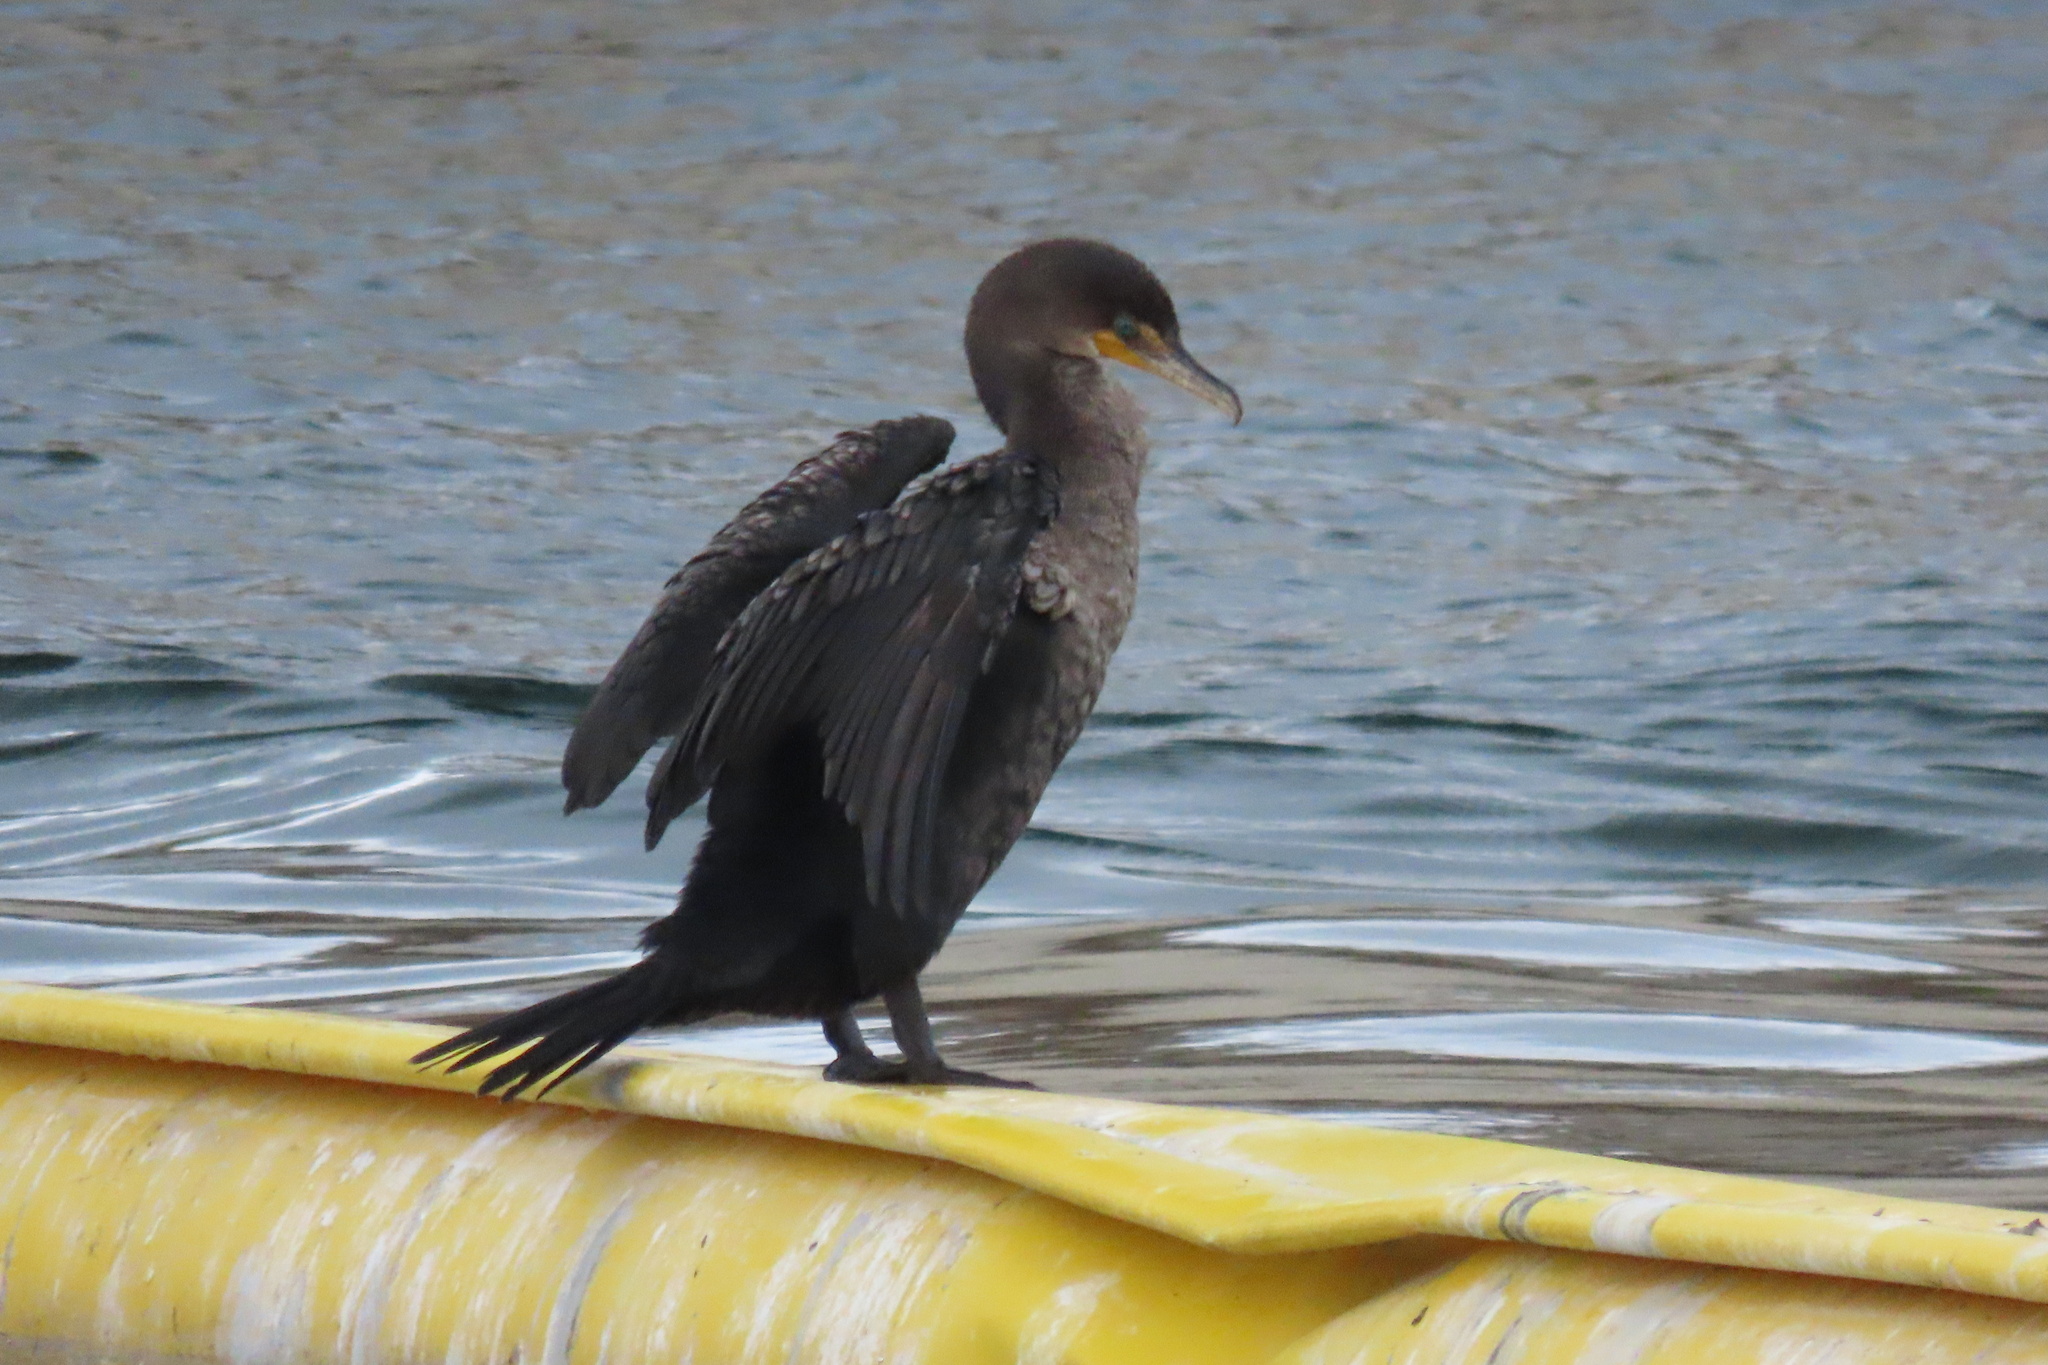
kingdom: Animalia
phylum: Chordata
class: Aves
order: Suliformes
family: Phalacrocoracidae
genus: Phalacrocorax
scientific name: Phalacrocorax auritus
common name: Double-crested cormorant
